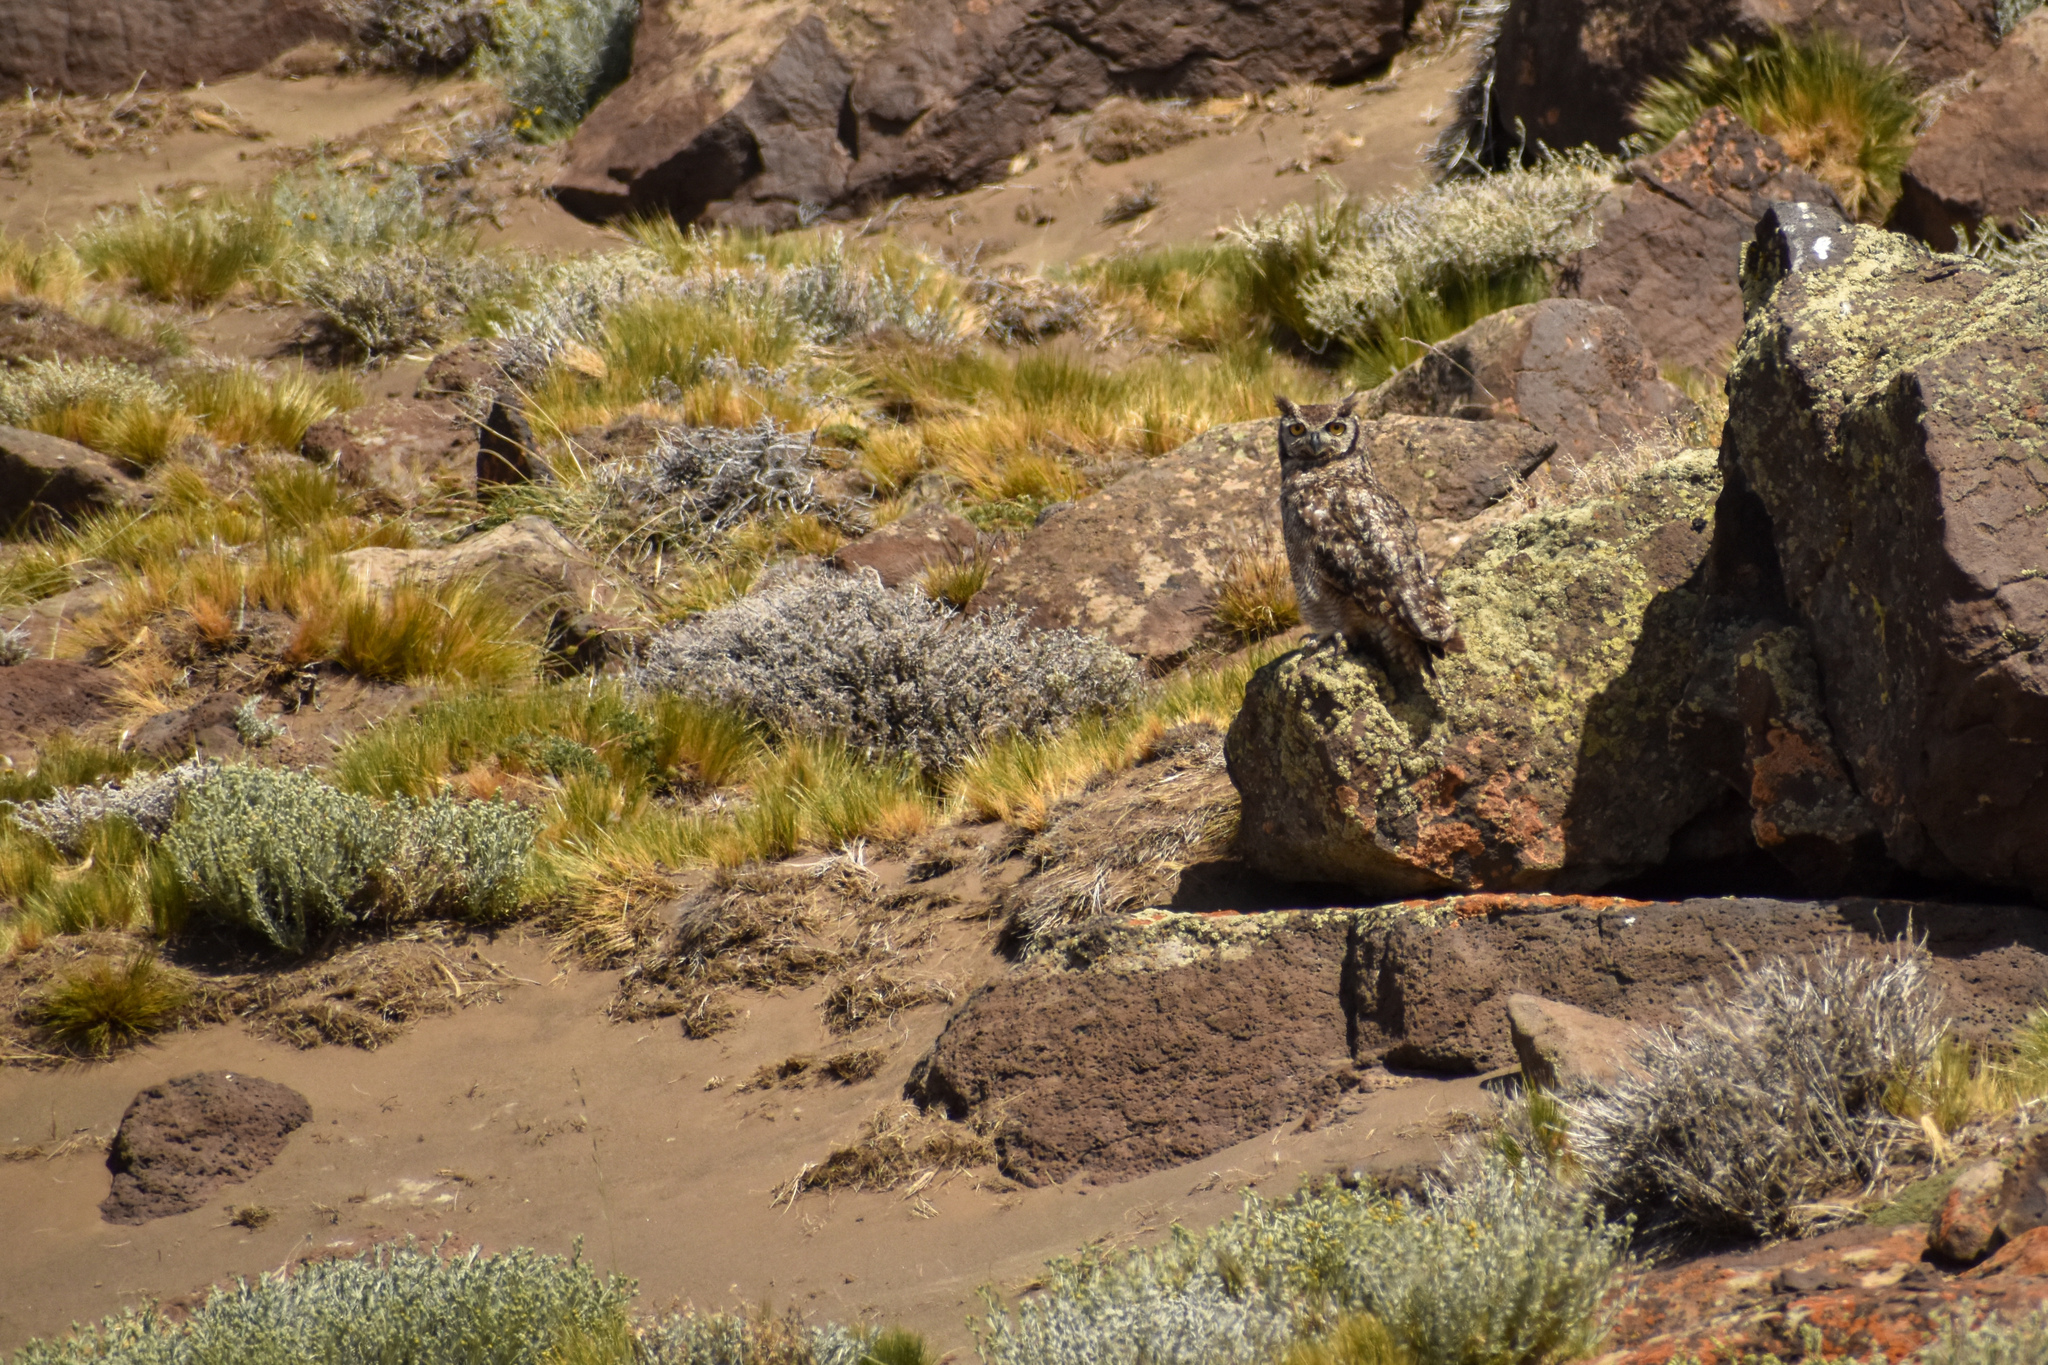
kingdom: Animalia
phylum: Chordata
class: Aves
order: Strigiformes
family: Strigidae
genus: Bubo
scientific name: Bubo magellanicus
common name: Lesser horned owl
